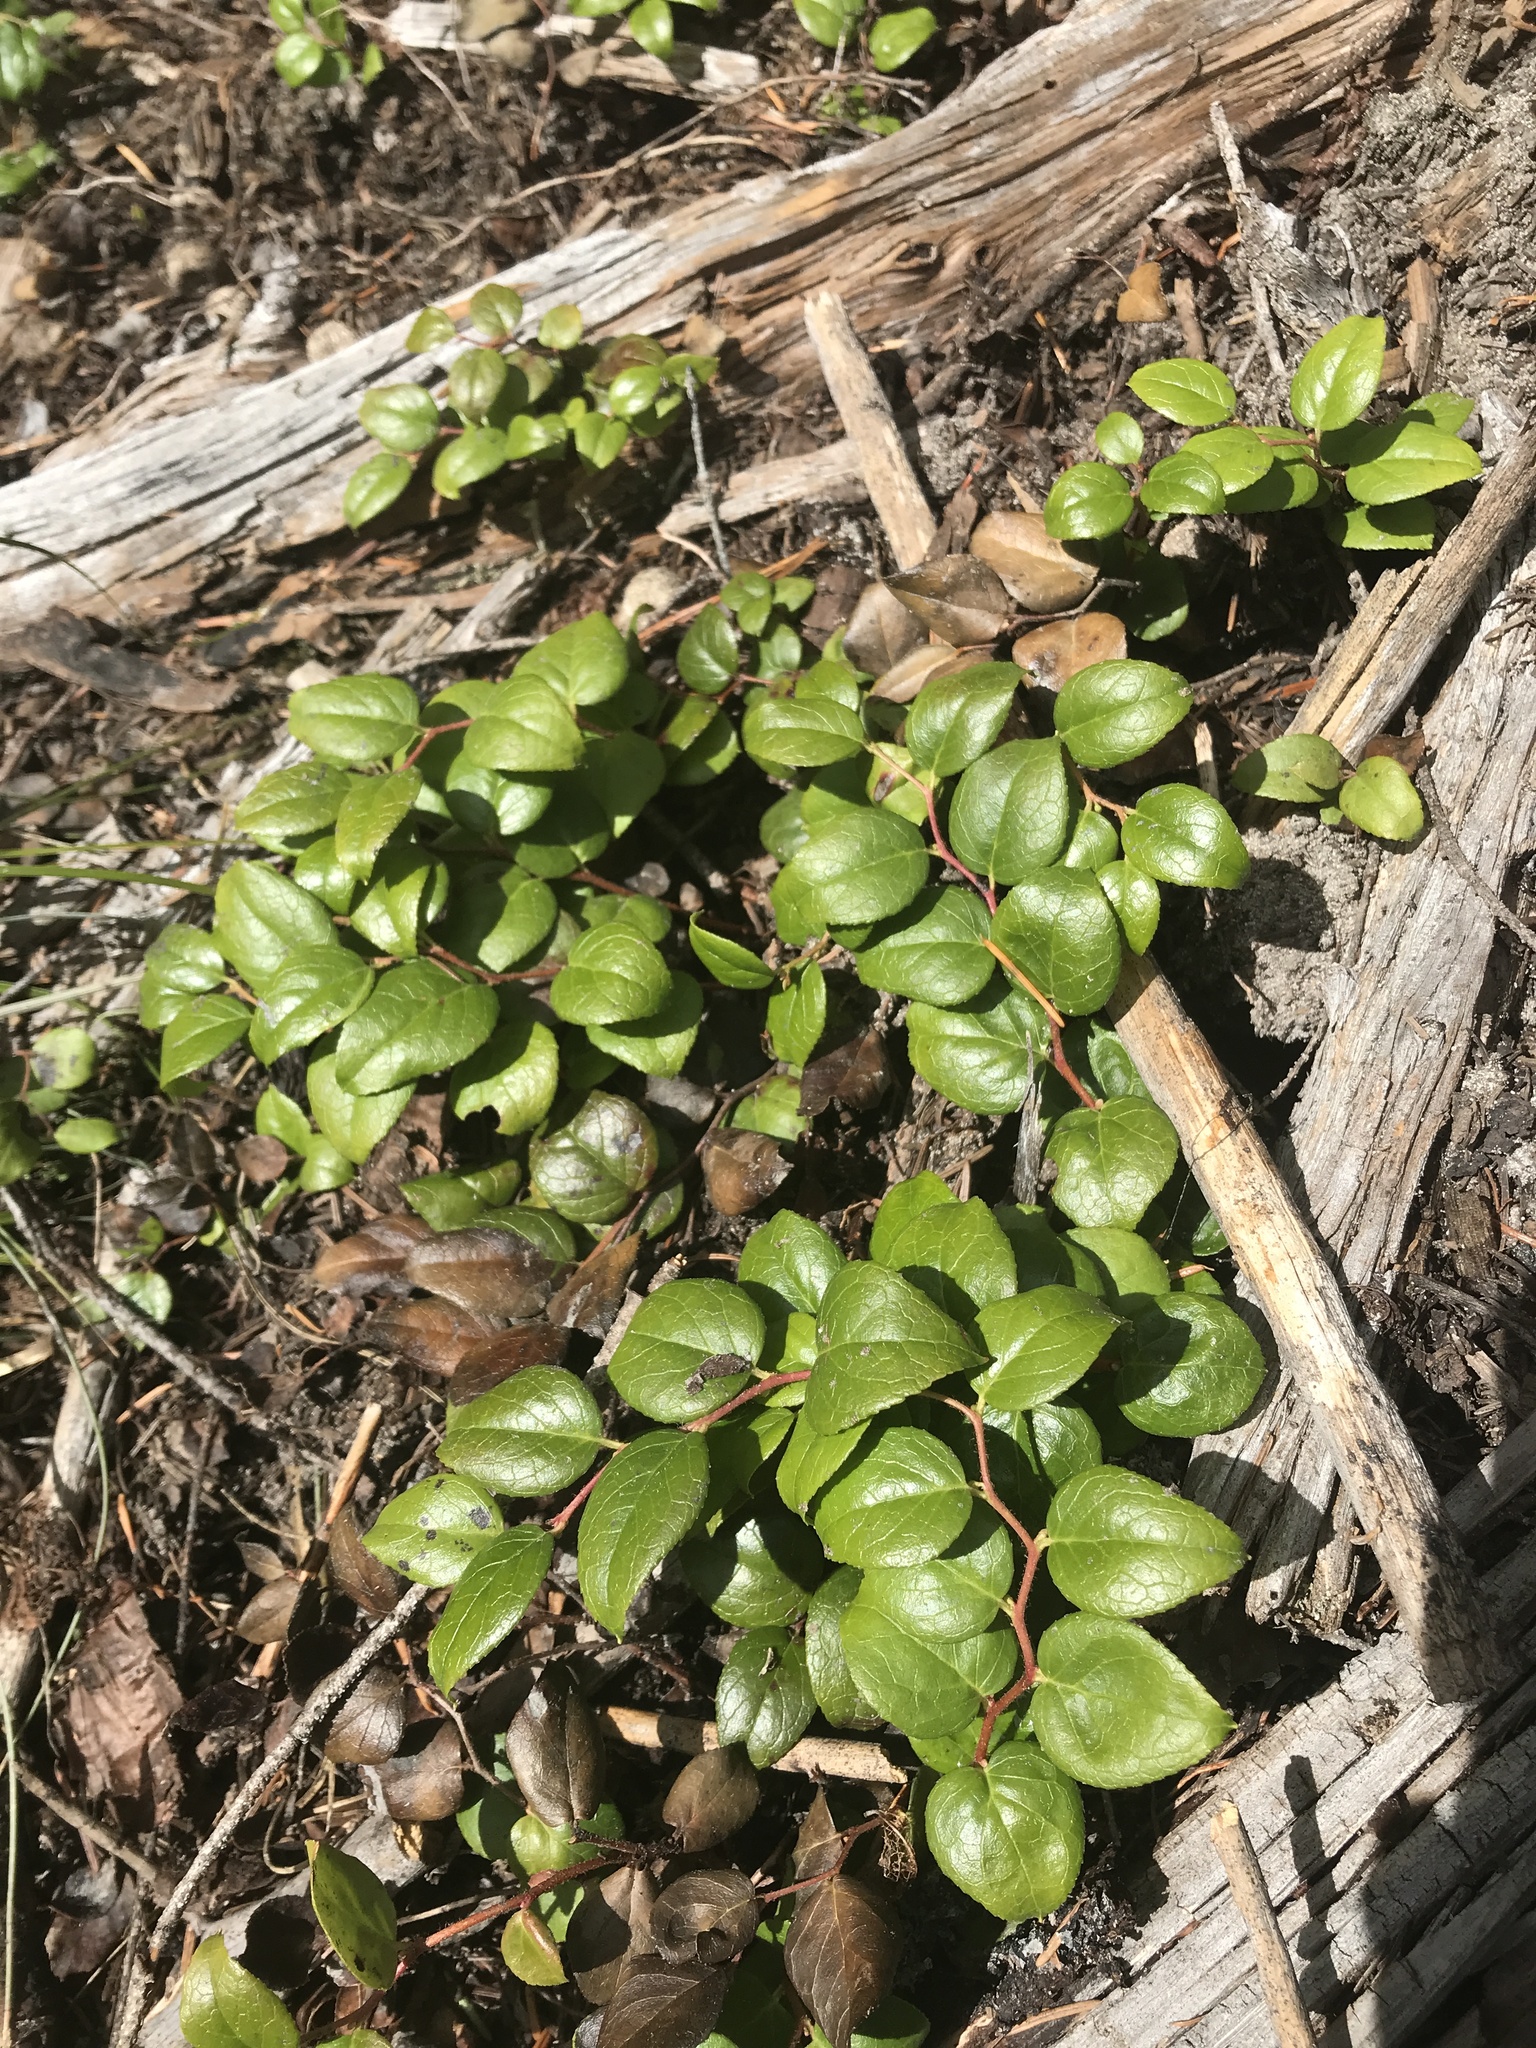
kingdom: Plantae
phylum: Tracheophyta
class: Magnoliopsida
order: Ericales
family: Ericaceae
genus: Gaultheria
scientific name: Gaultheria ovatifolia
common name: Oregon wintergreen
